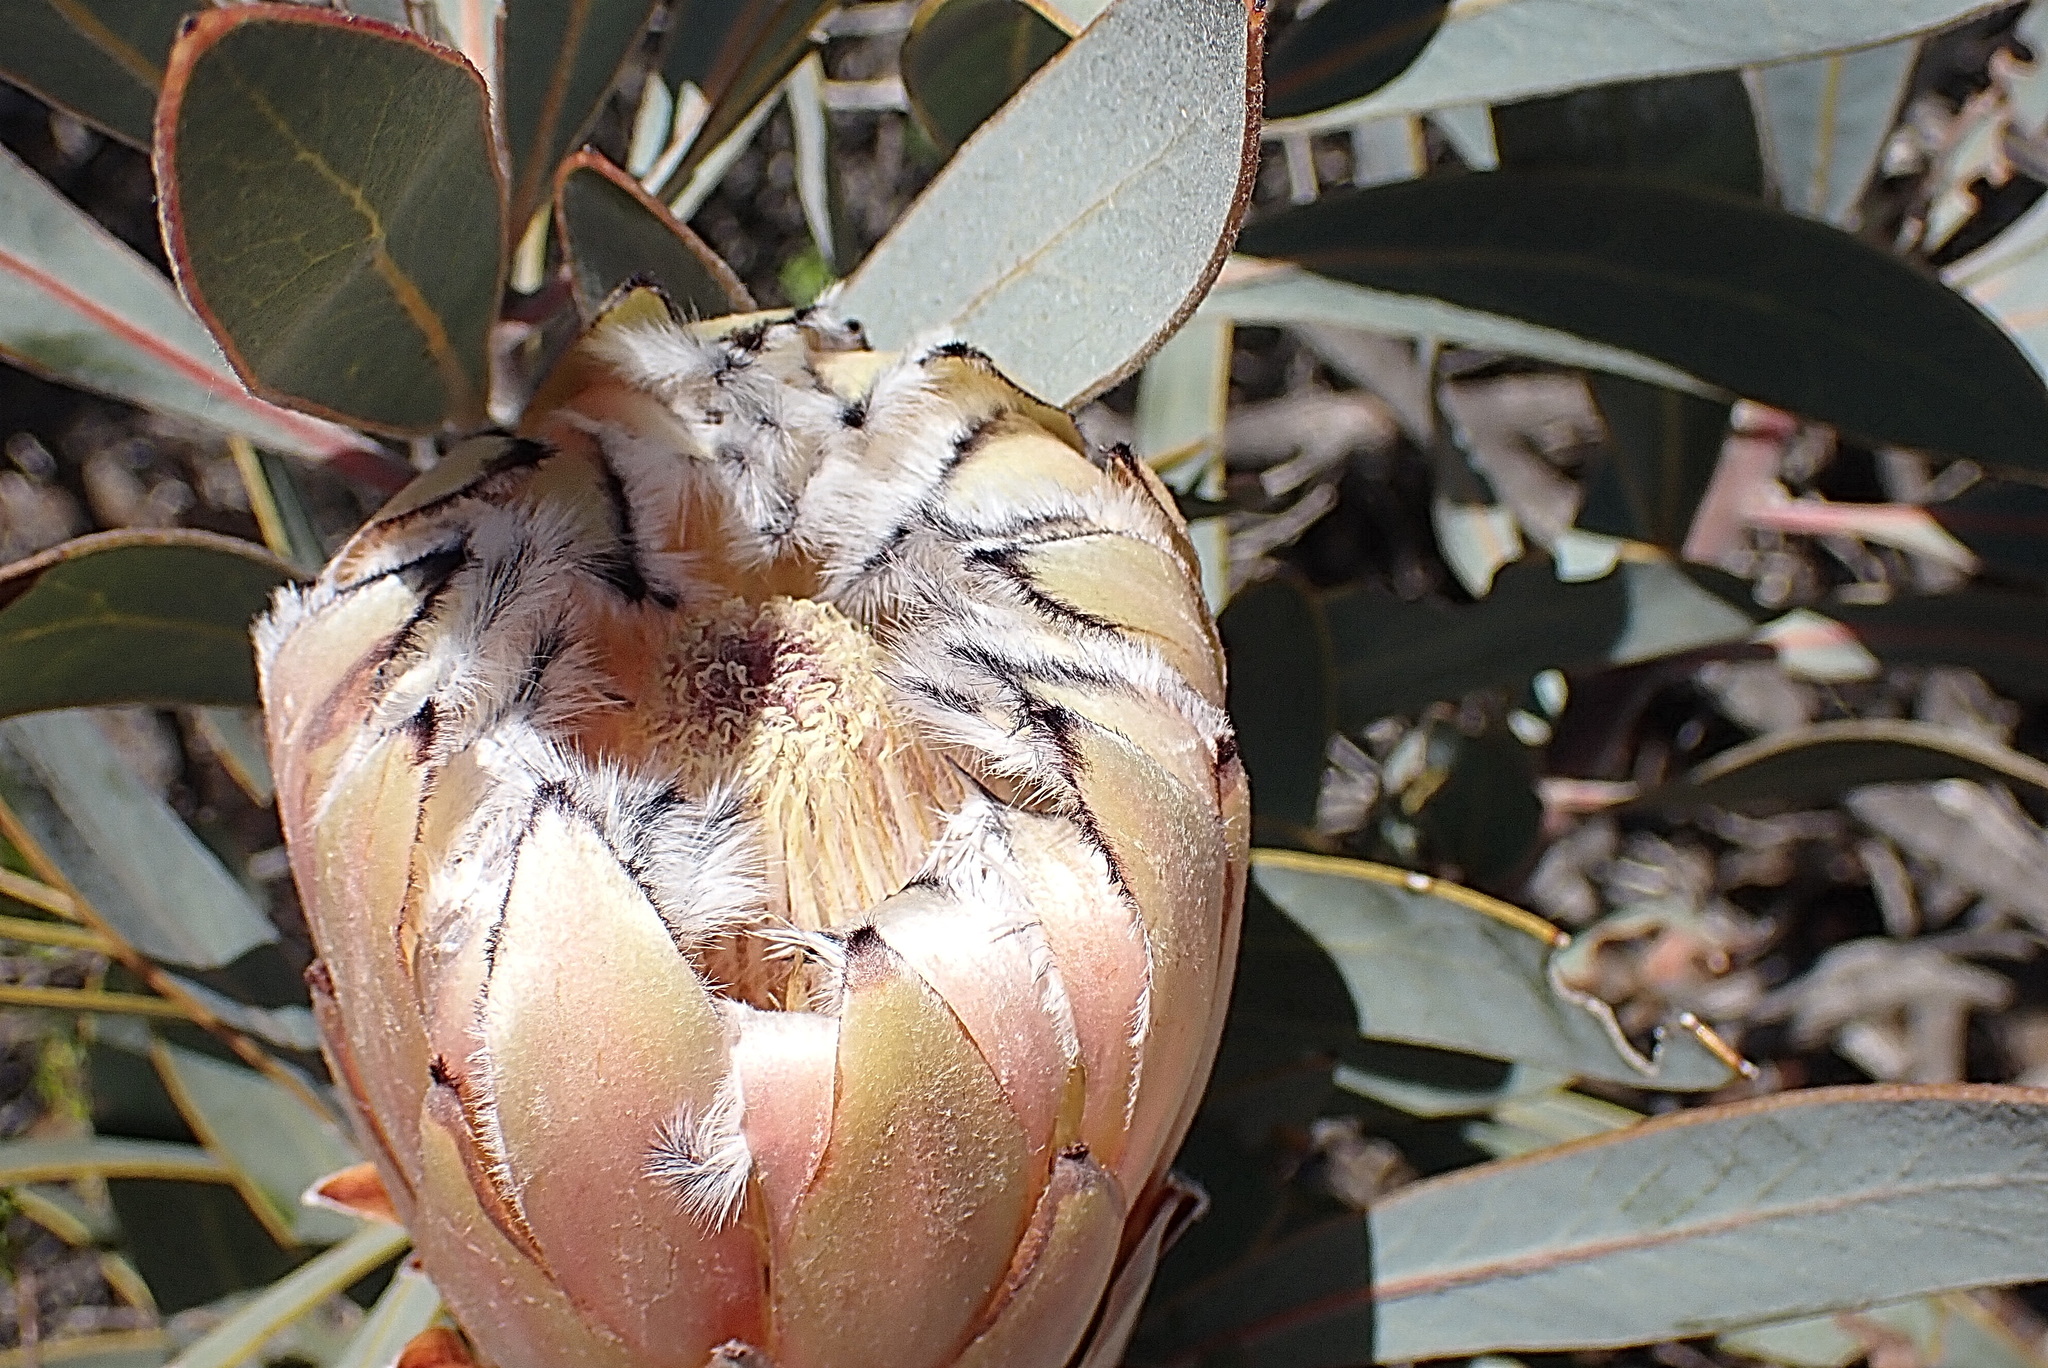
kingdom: Plantae
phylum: Tracheophyta
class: Magnoliopsida
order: Proteales
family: Proteaceae
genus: Protea
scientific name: Protea laurifolia
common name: Grey-leaf sugarbsh
